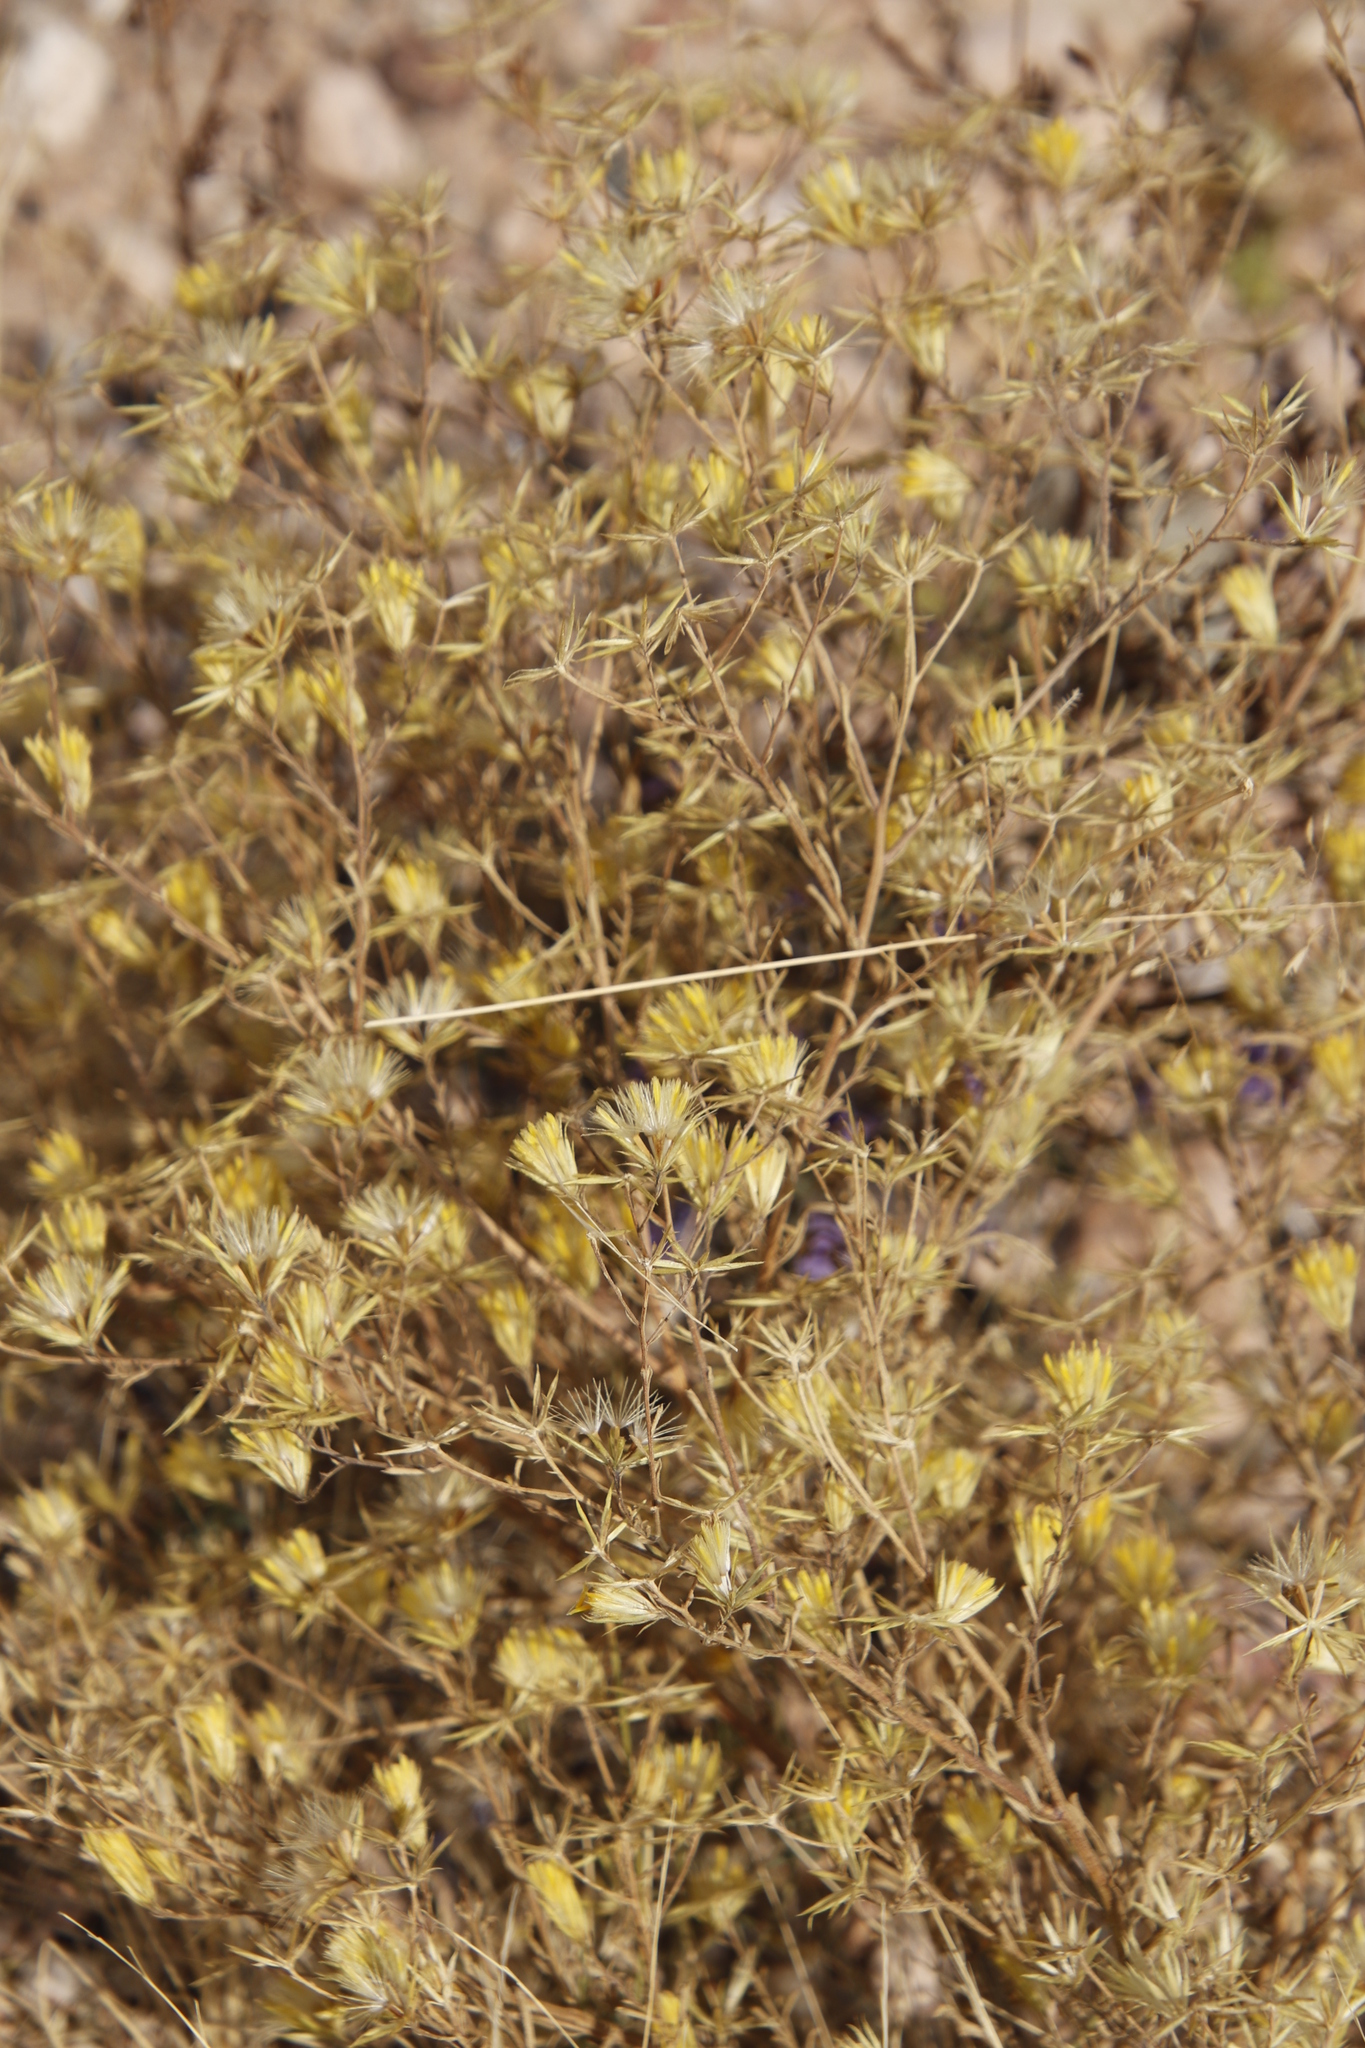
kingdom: Plantae
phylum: Tracheophyta
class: Magnoliopsida
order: Asterales
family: Asteraceae
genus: Pegolettia
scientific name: Pegolettia senegalensis
